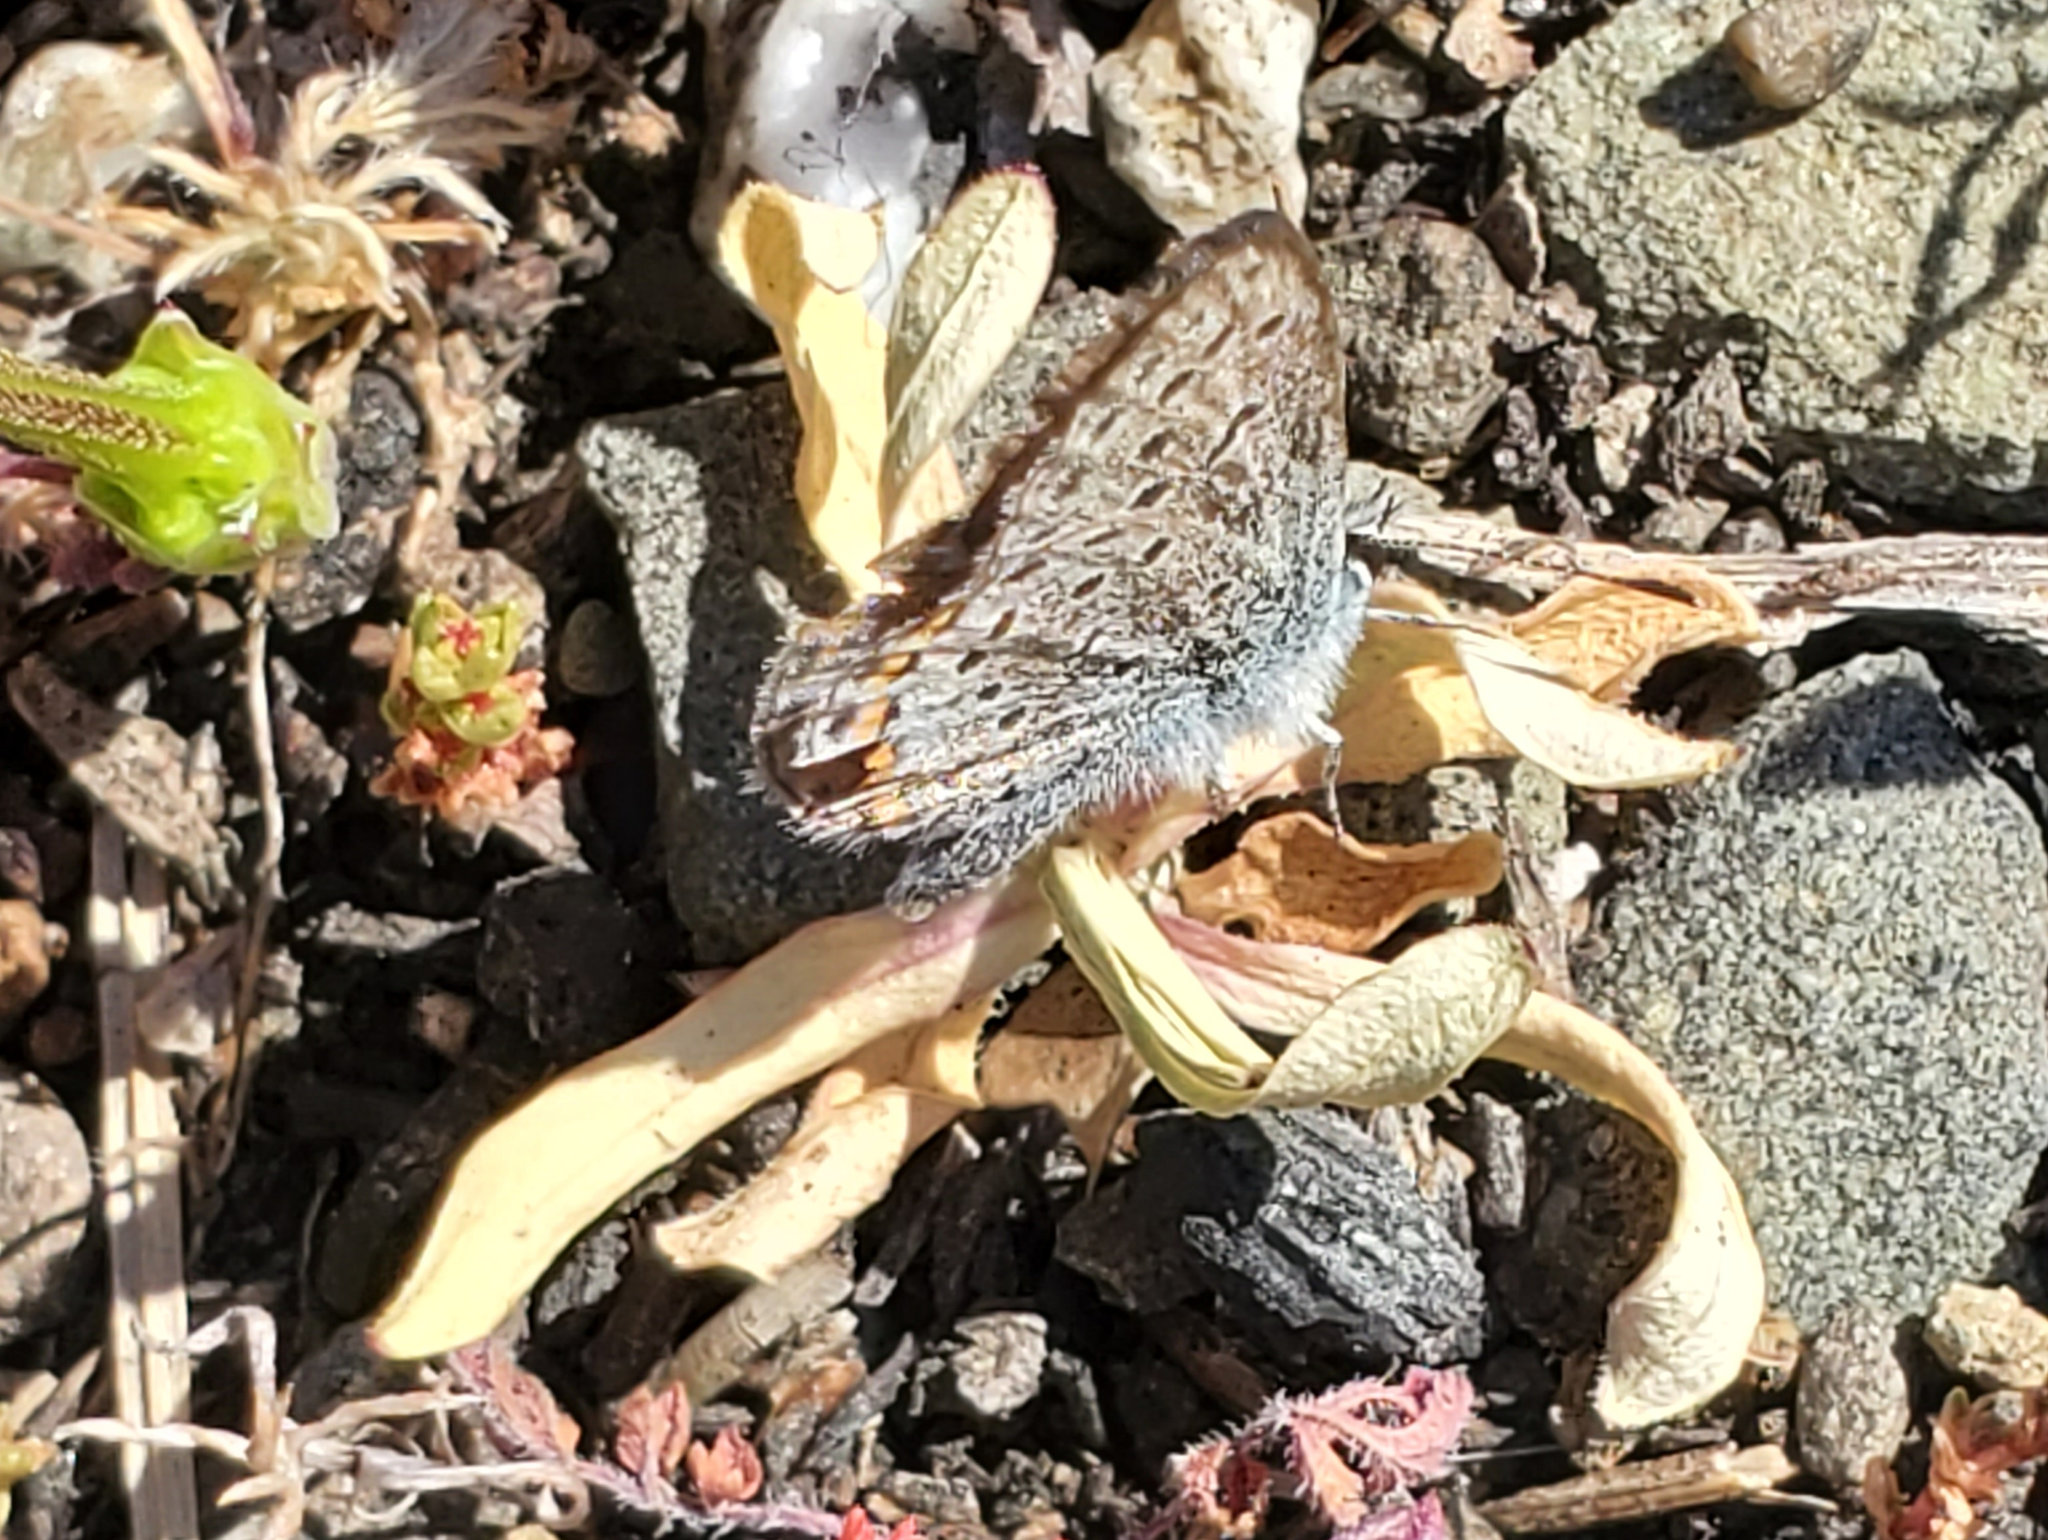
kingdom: Animalia
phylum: Arthropoda
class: Insecta
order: Lepidoptera
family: Lycaenidae
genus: Icaricia
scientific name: Icaricia acmon
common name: Acmon blue
